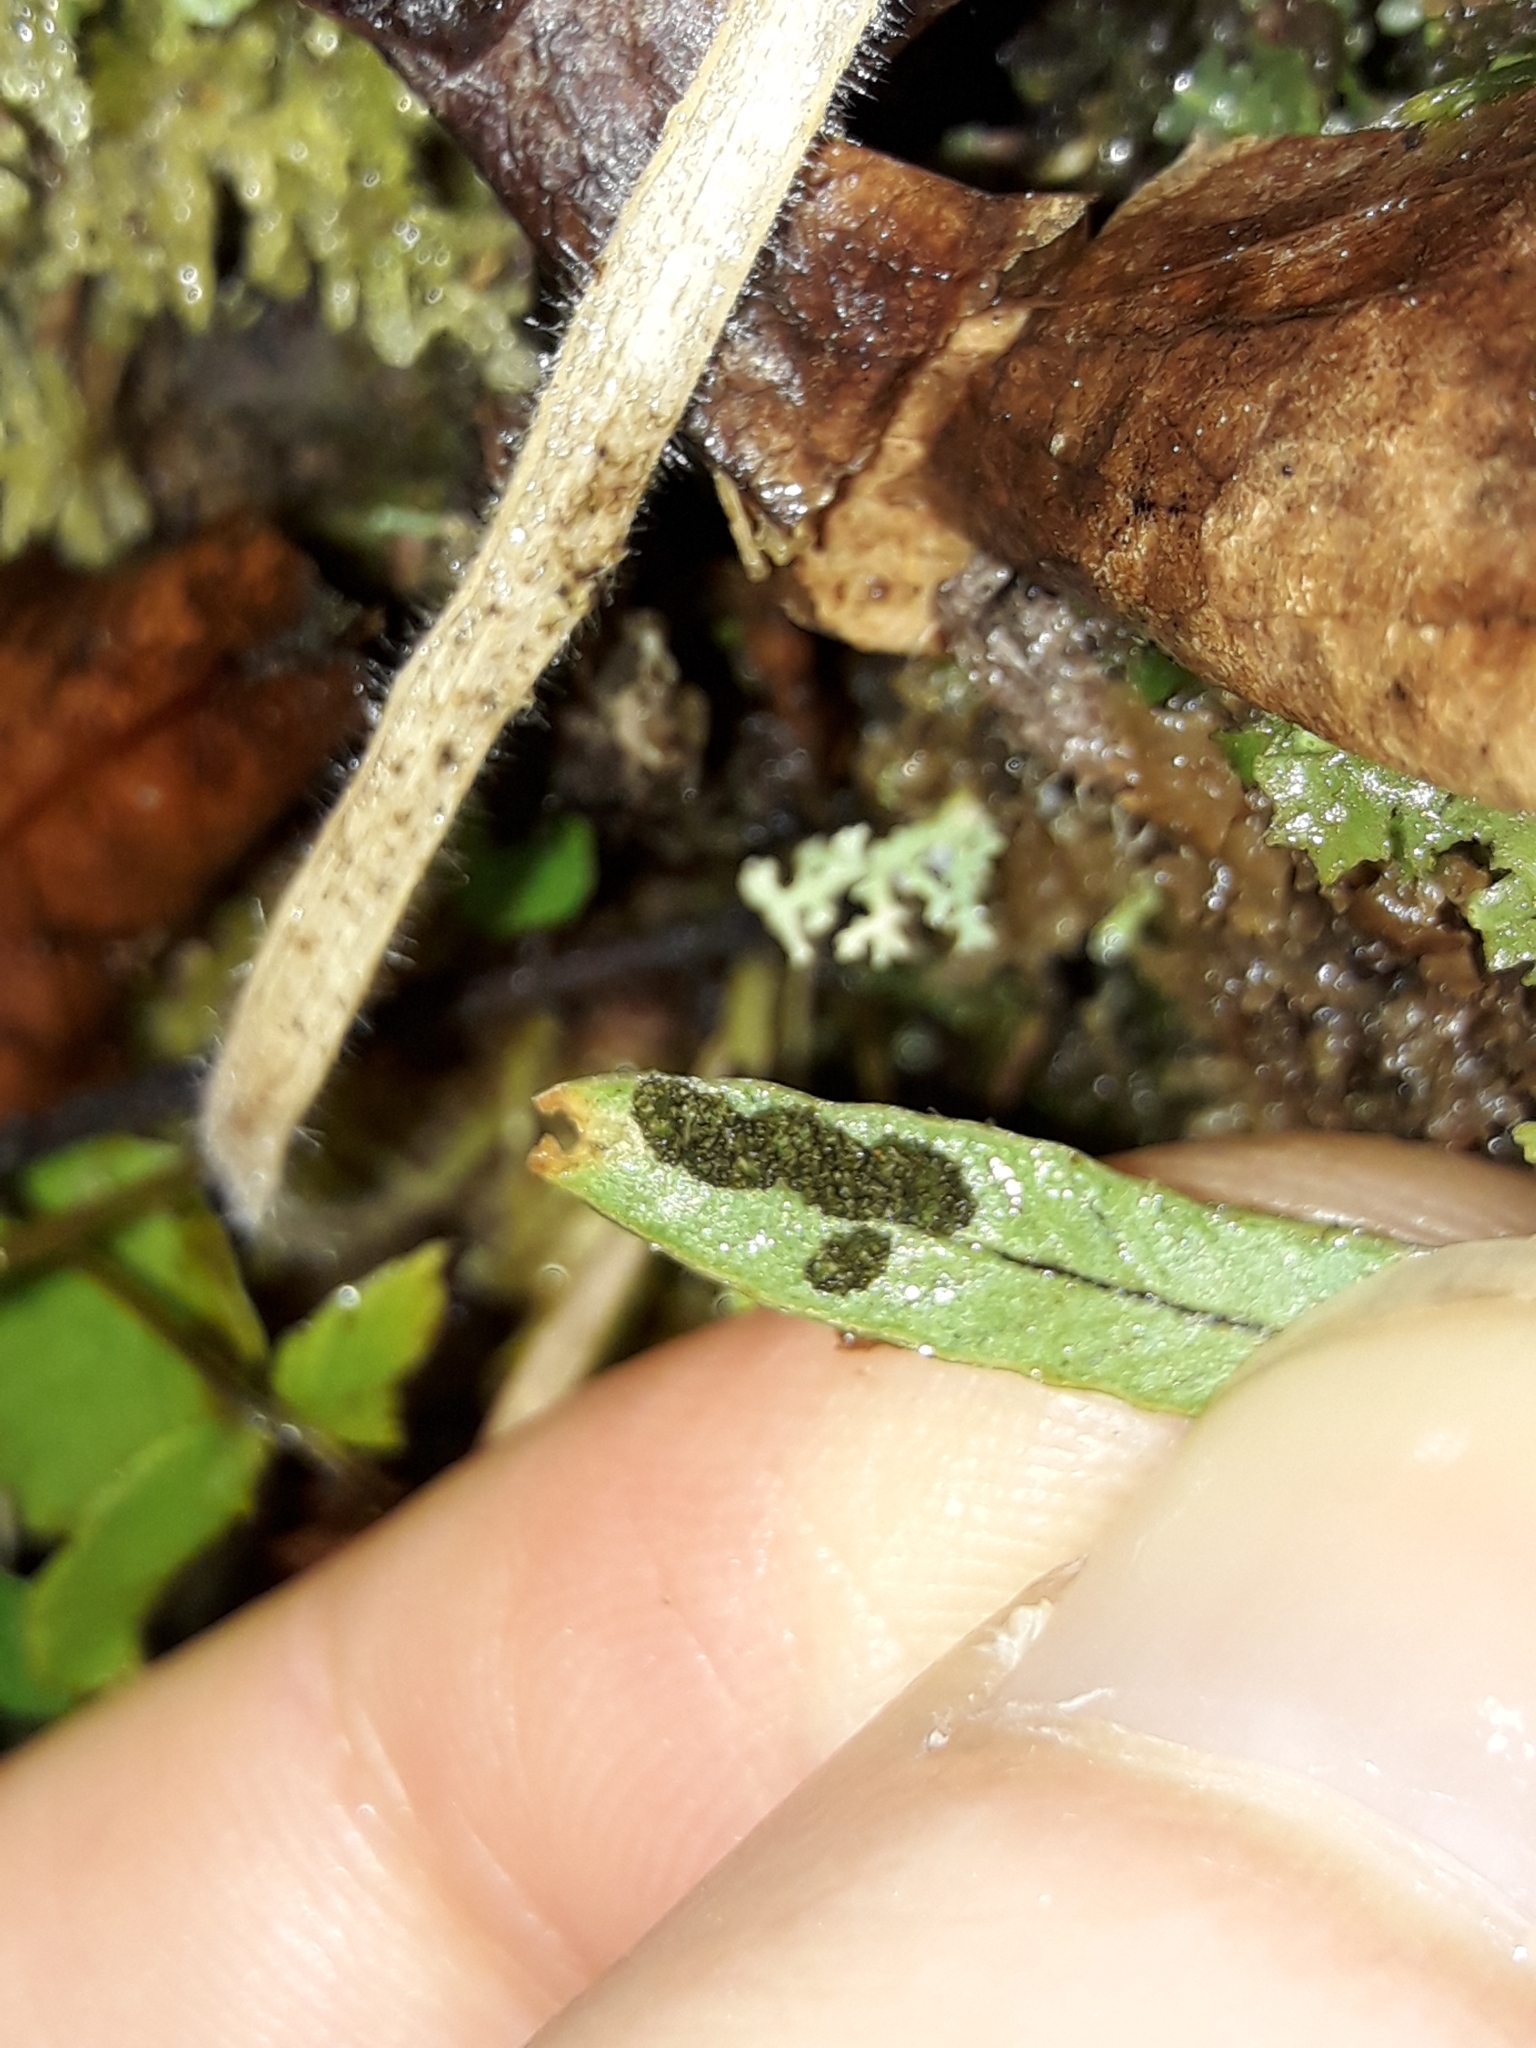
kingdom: Plantae
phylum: Tracheophyta
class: Polypodiopsida
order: Polypodiales
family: Polypodiaceae
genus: Notogrammitis
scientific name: Notogrammitis billardierei
